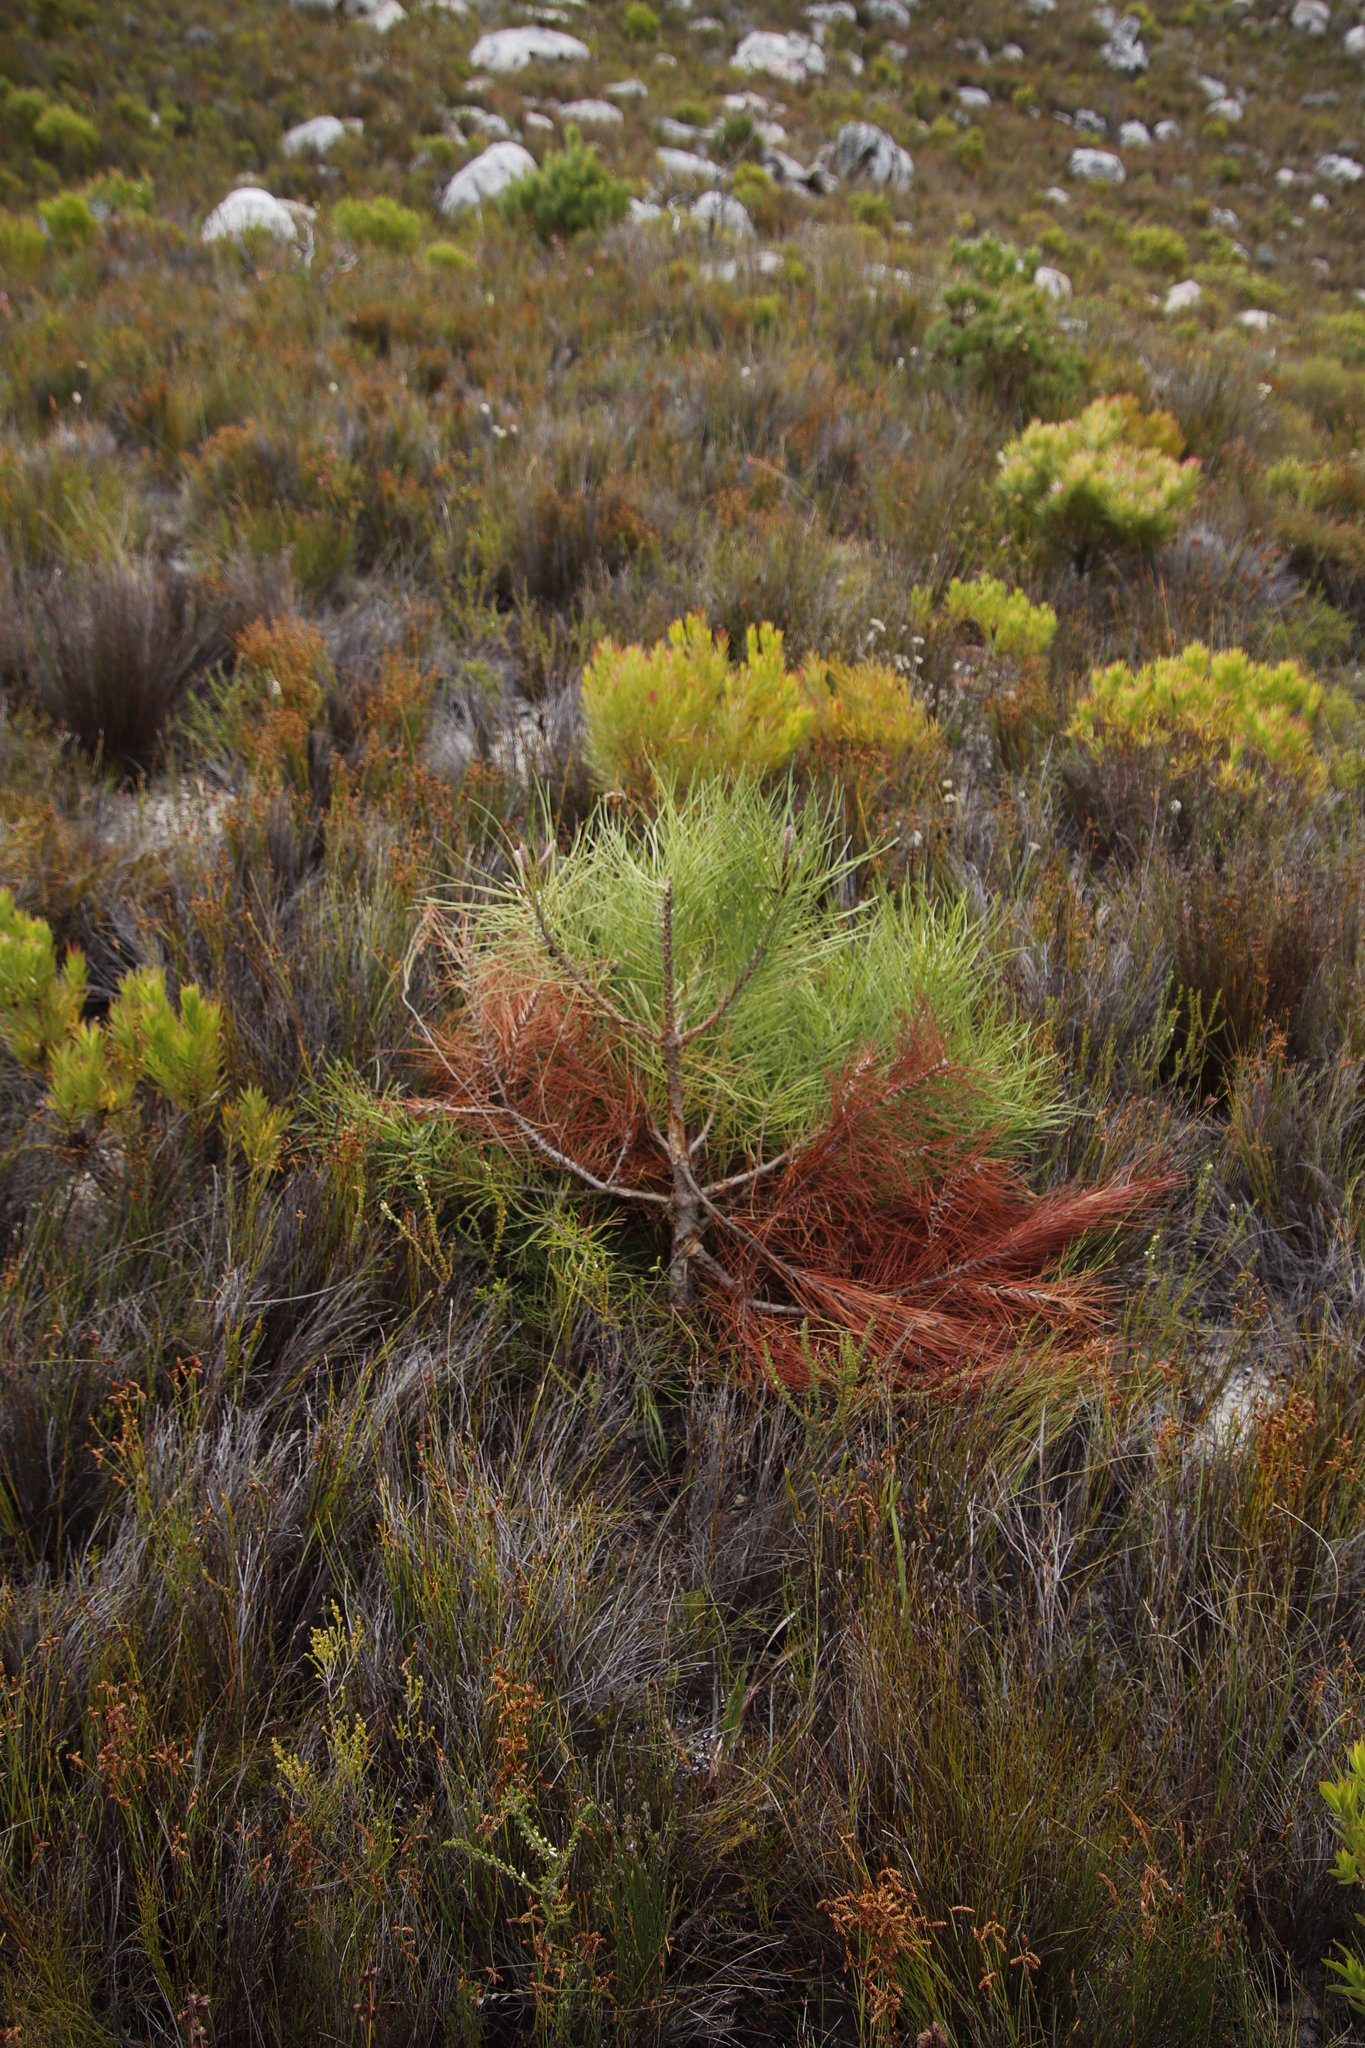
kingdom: Plantae
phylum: Tracheophyta
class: Pinopsida
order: Pinales
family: Pinaceae
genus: Pinus
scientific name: Pinus pinaster
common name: Maritime pine
